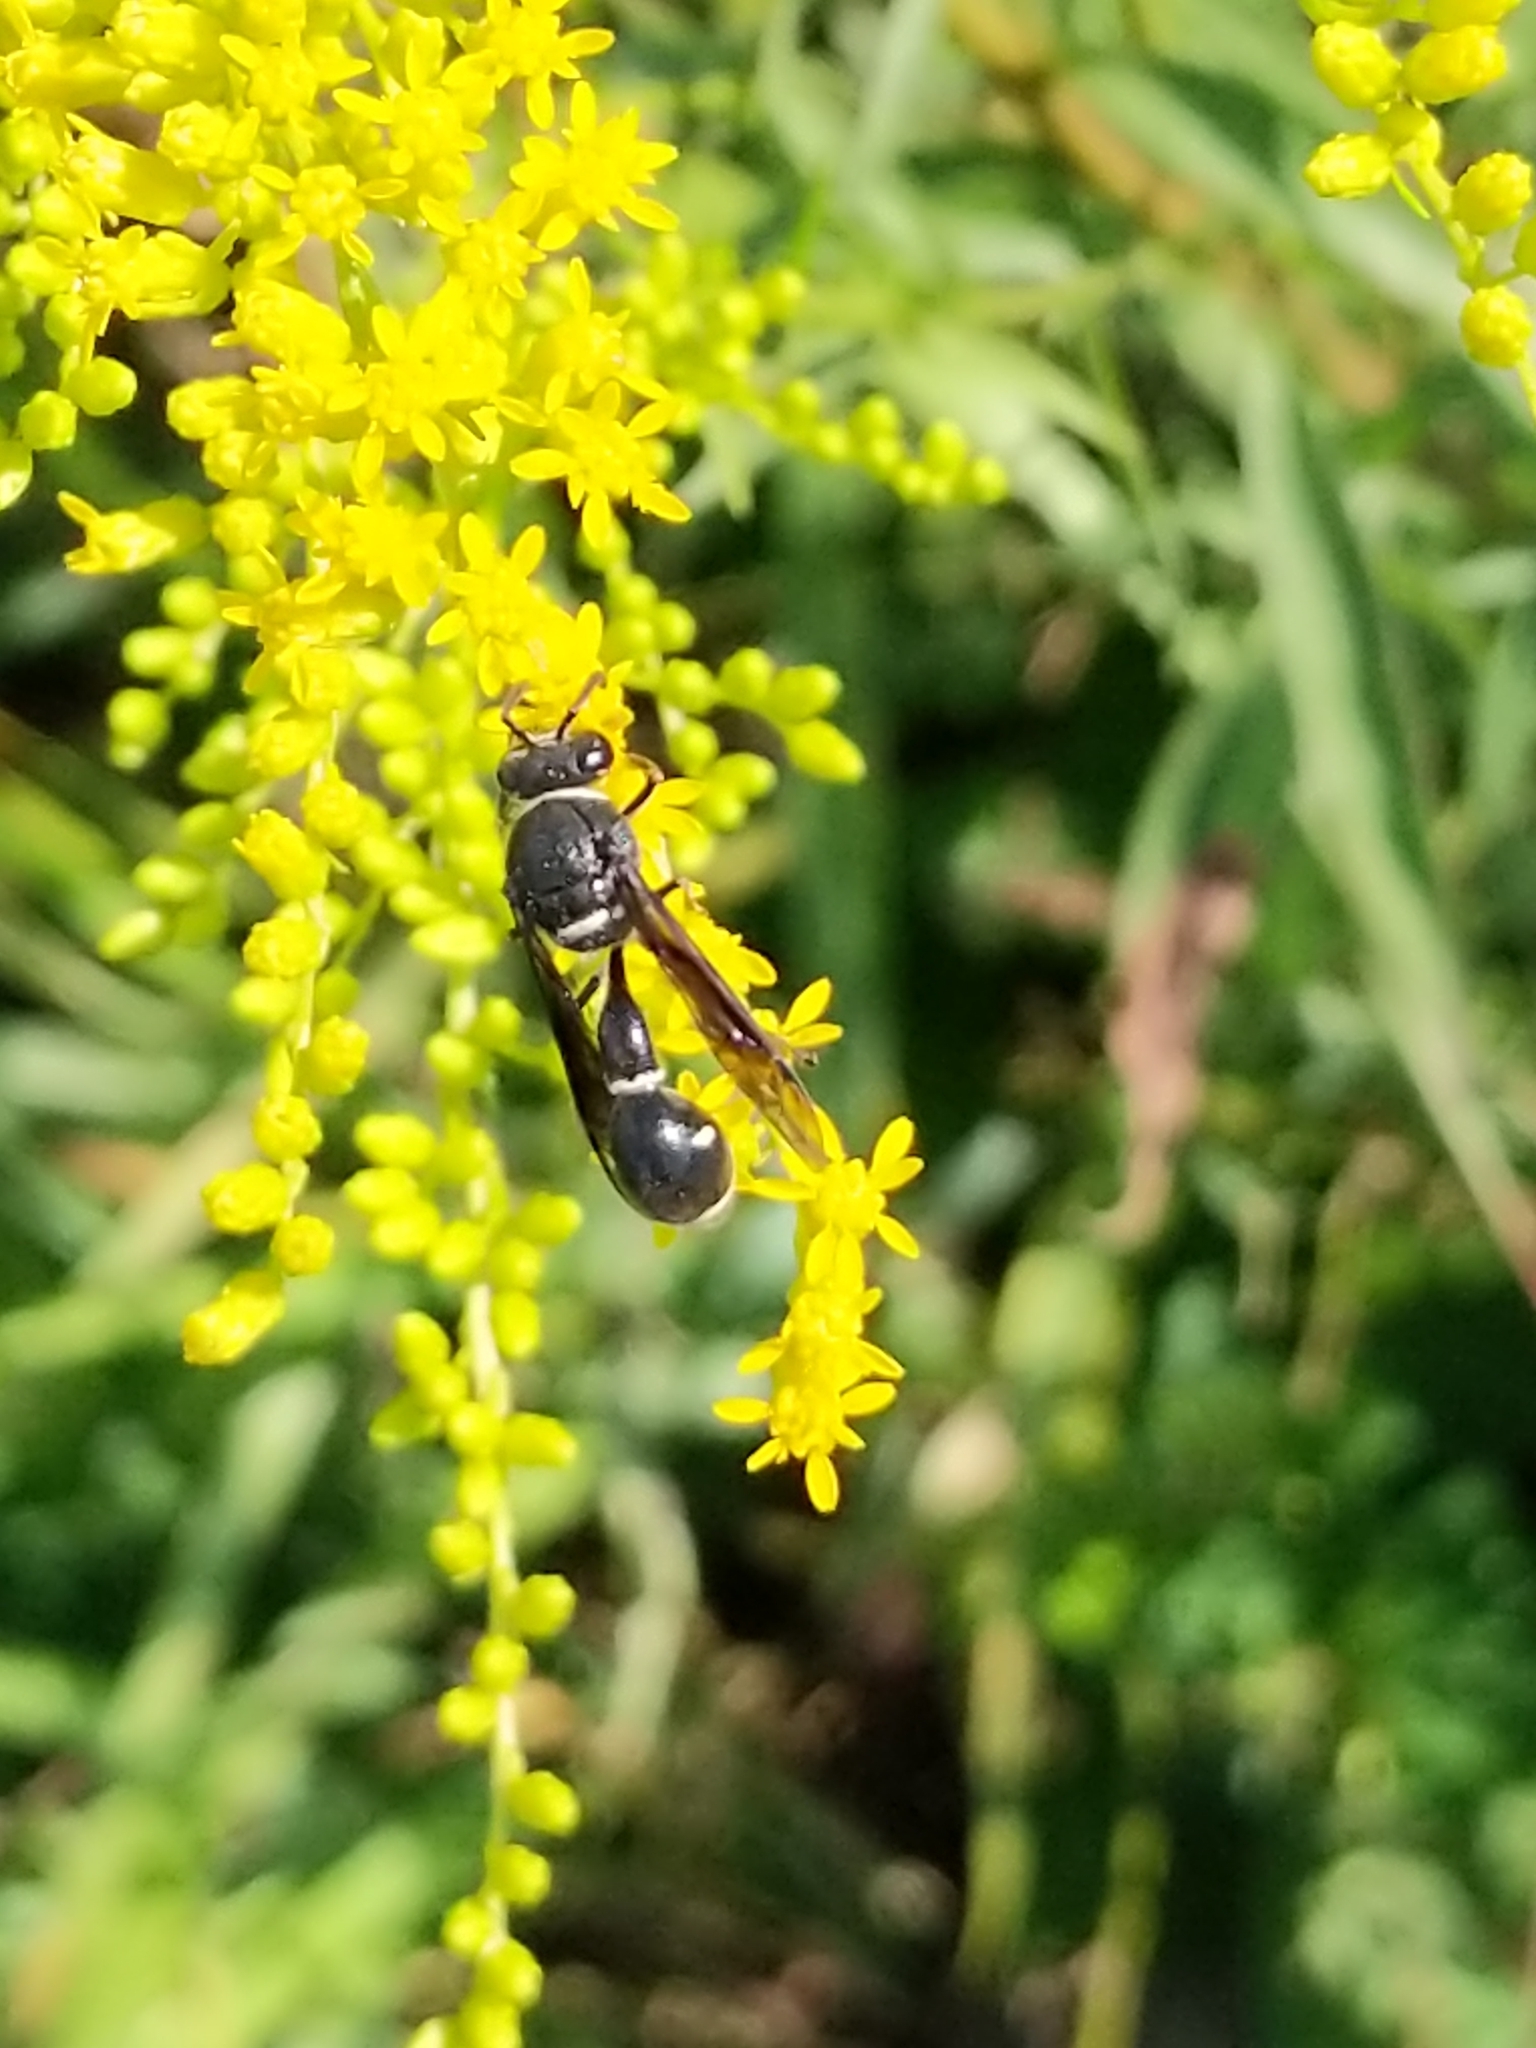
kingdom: Animalia
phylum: Arthropoda
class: Insecta
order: Hymenoptera
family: Vespidae
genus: Eumenes
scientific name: Eumenes fraternus
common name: Fraternal potter wasp
